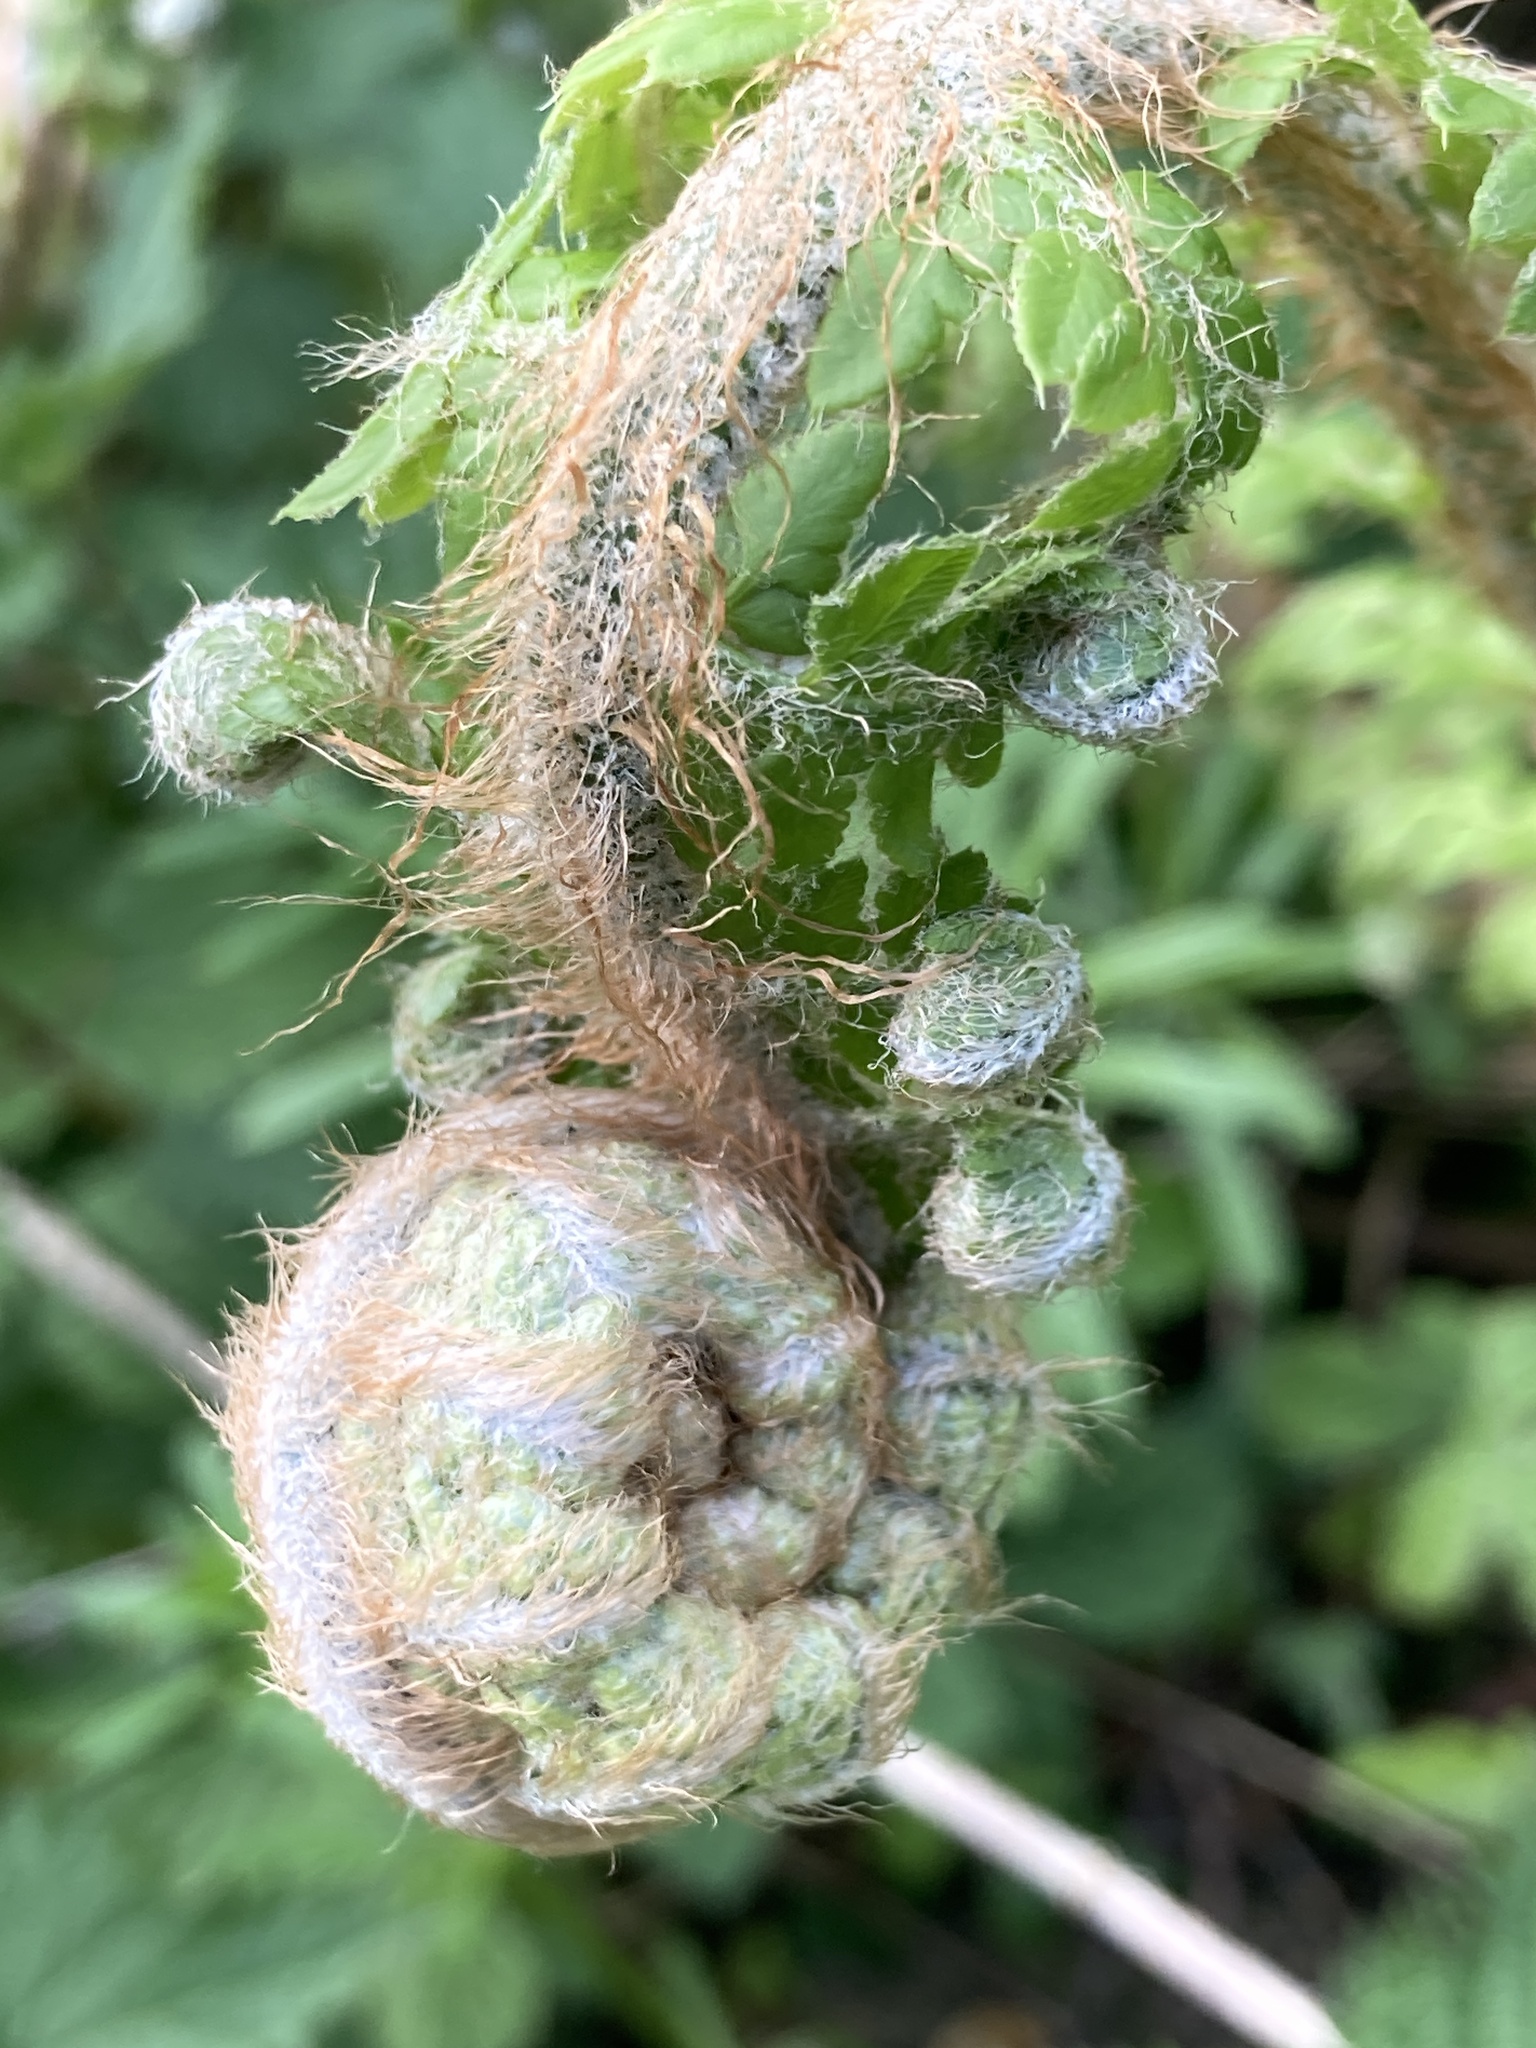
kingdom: Plantae
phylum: Tracheophyta
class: Polypodiopsida
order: Polypodiales
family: Dryopteridaceae
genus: Polystichum
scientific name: Polystichum setiferum
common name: Soft shield-fern
